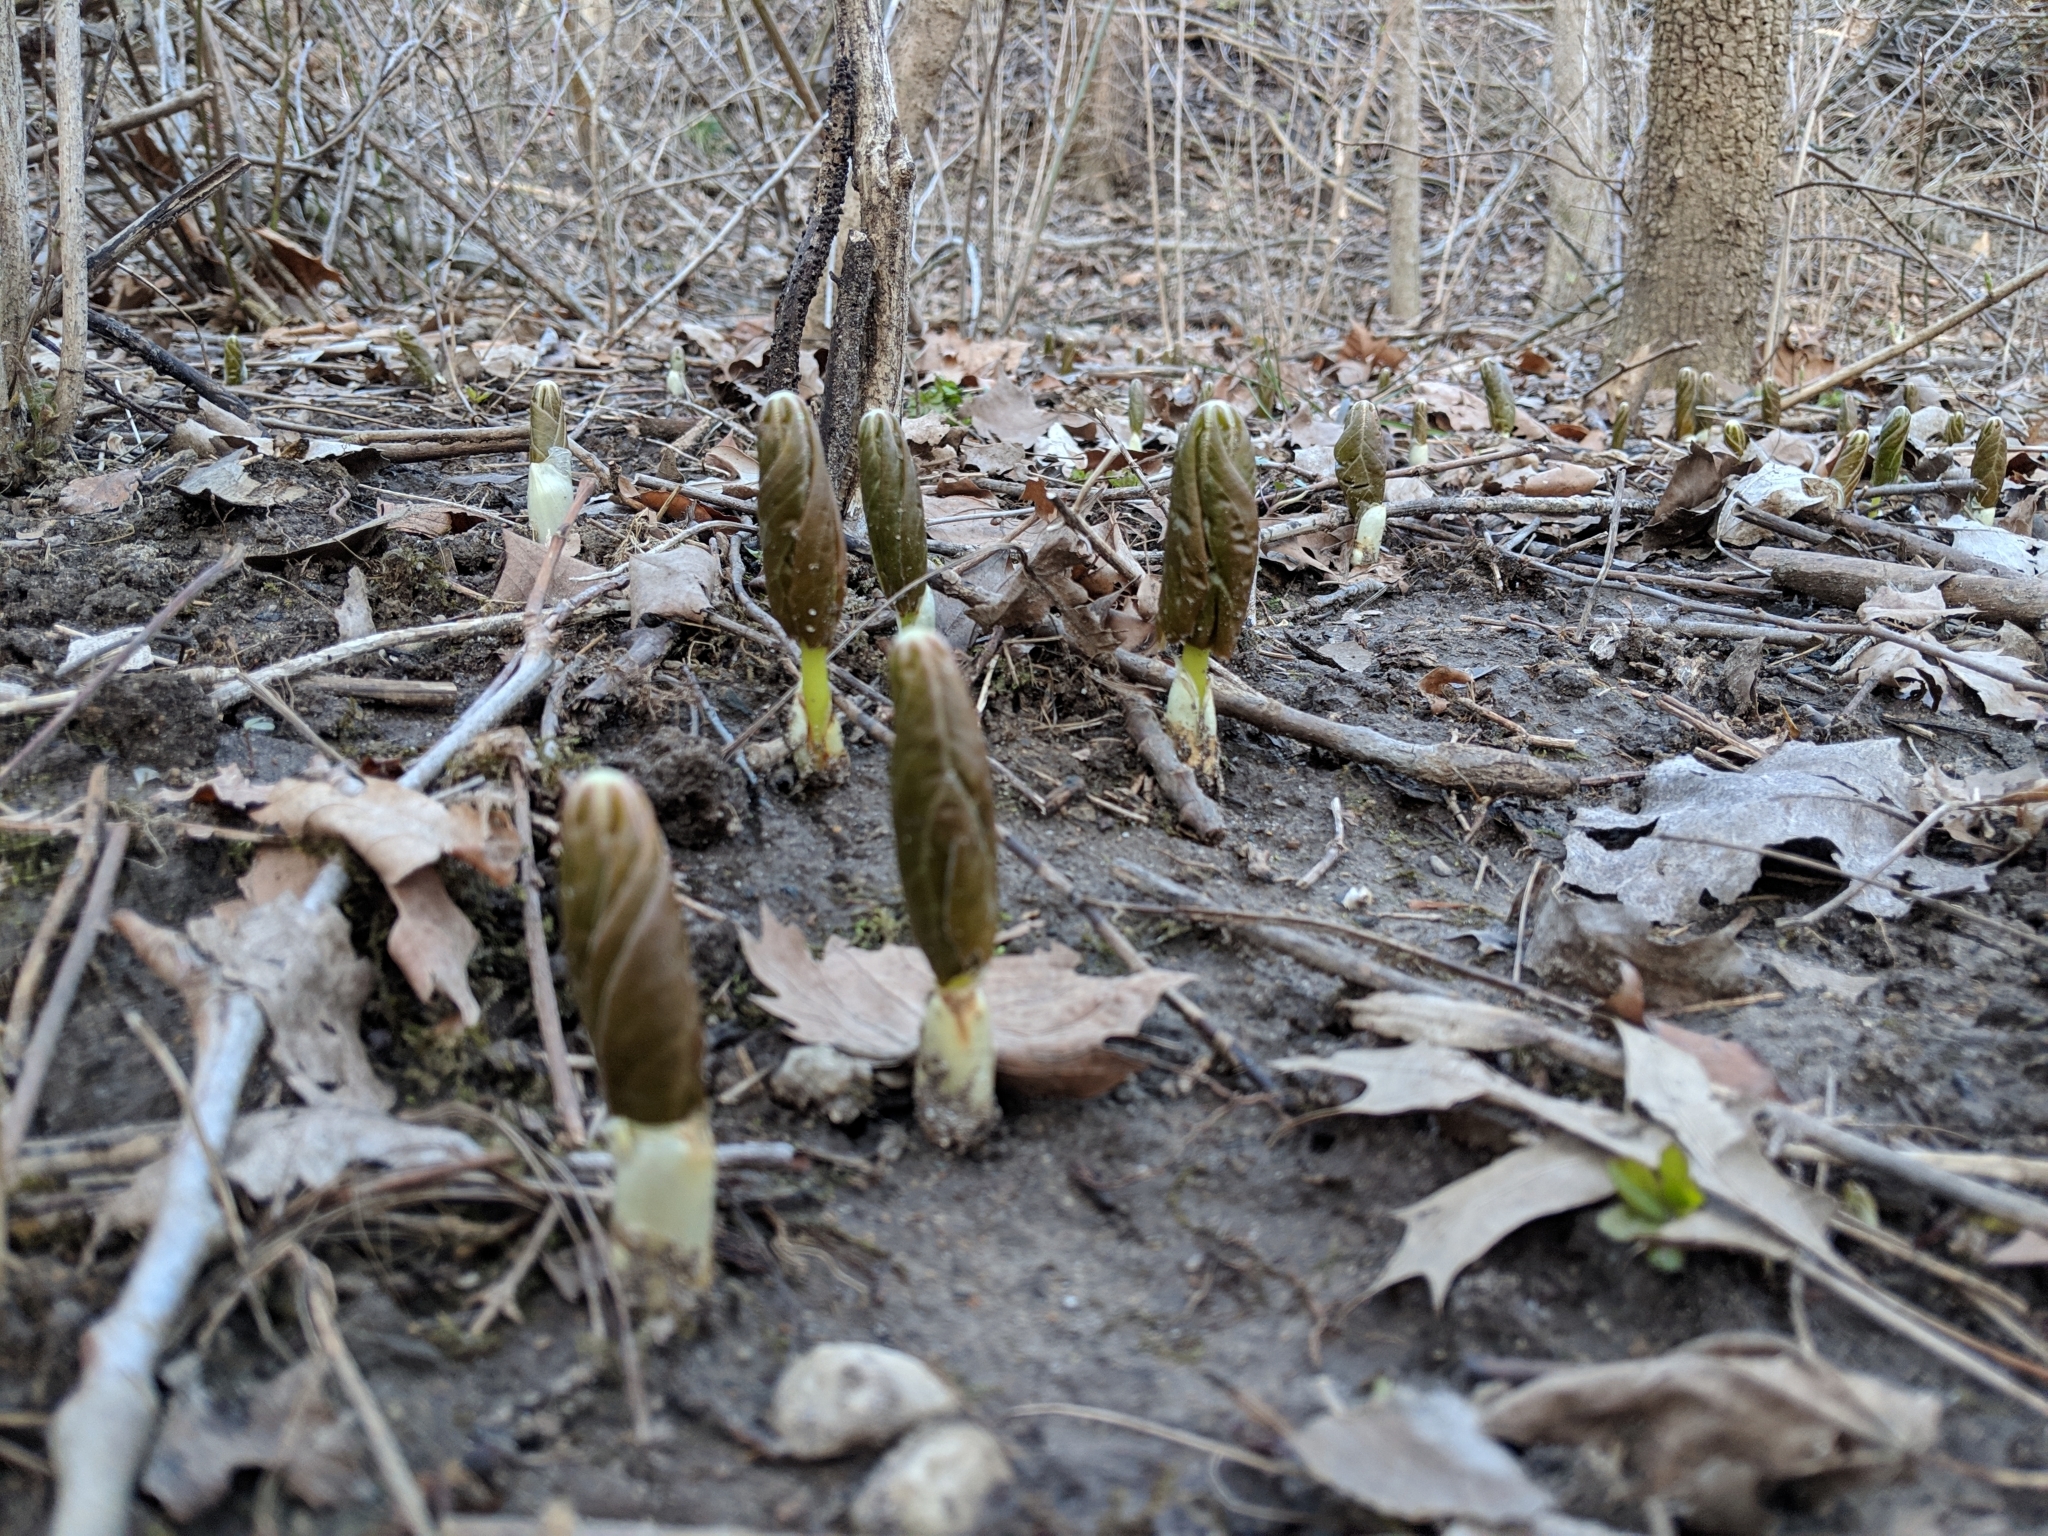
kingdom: Plantae
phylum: Tracheophyta
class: Magnoliopsida
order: Ranunculales
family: Berberidaceae
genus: Podophyllum
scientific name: Podophyllum peltatum
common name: Wild mandrake
